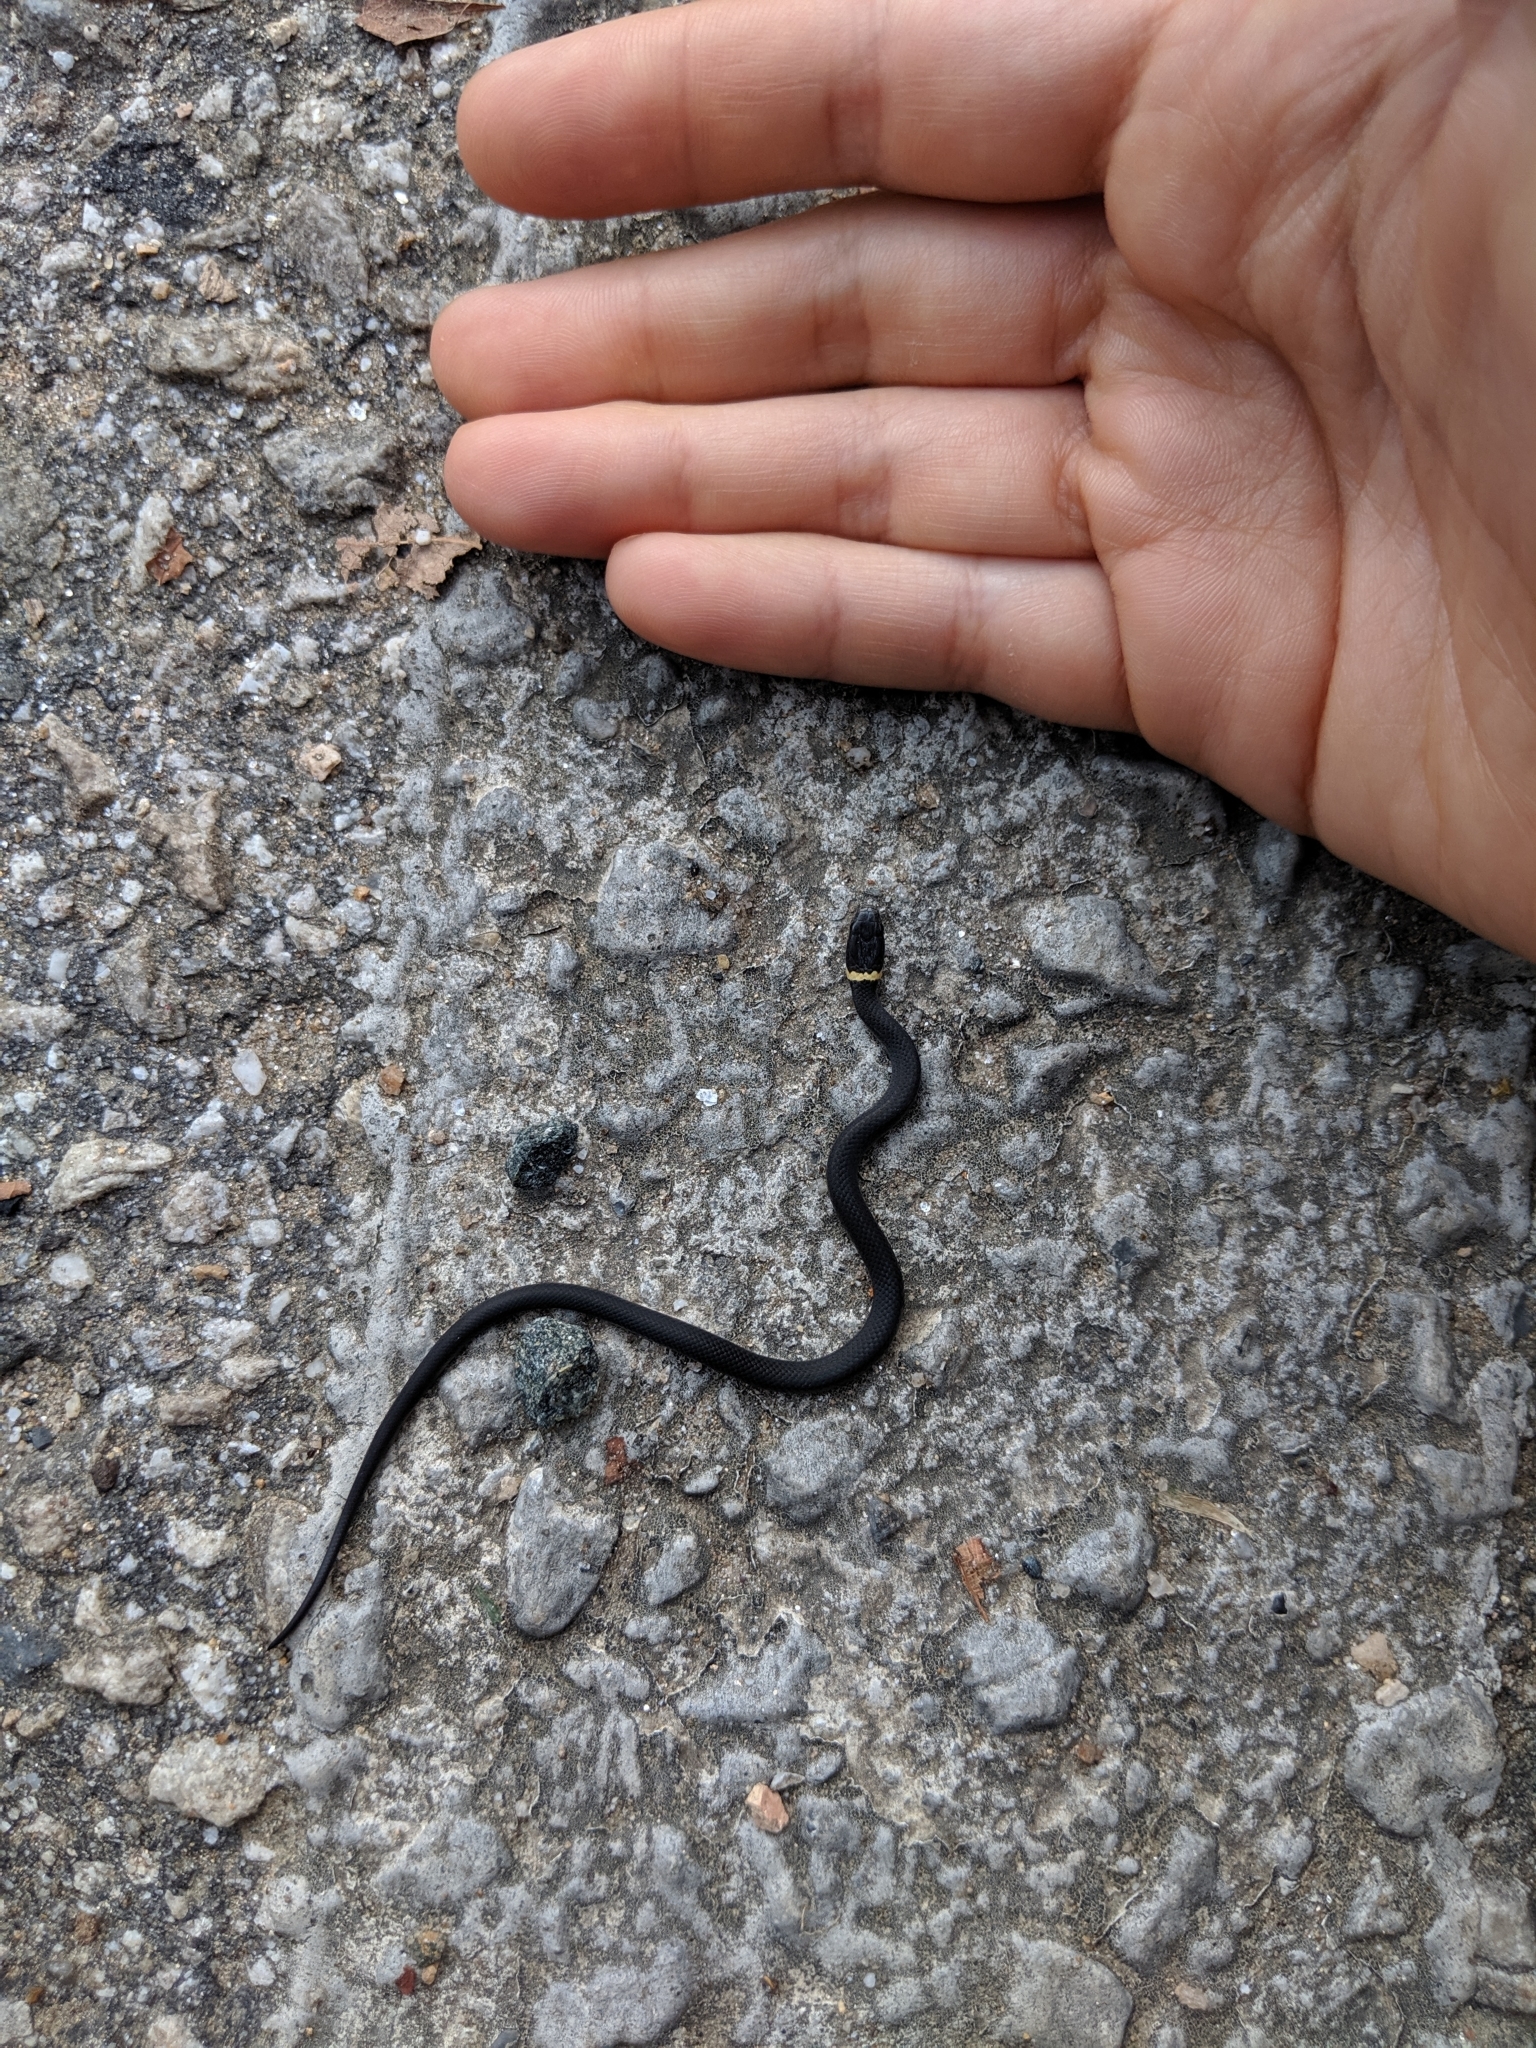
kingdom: Animalia
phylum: Chordata
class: Squamata
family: Colubridae
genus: Diadophis
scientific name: Diadophis punctatus
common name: Ringneck snake
